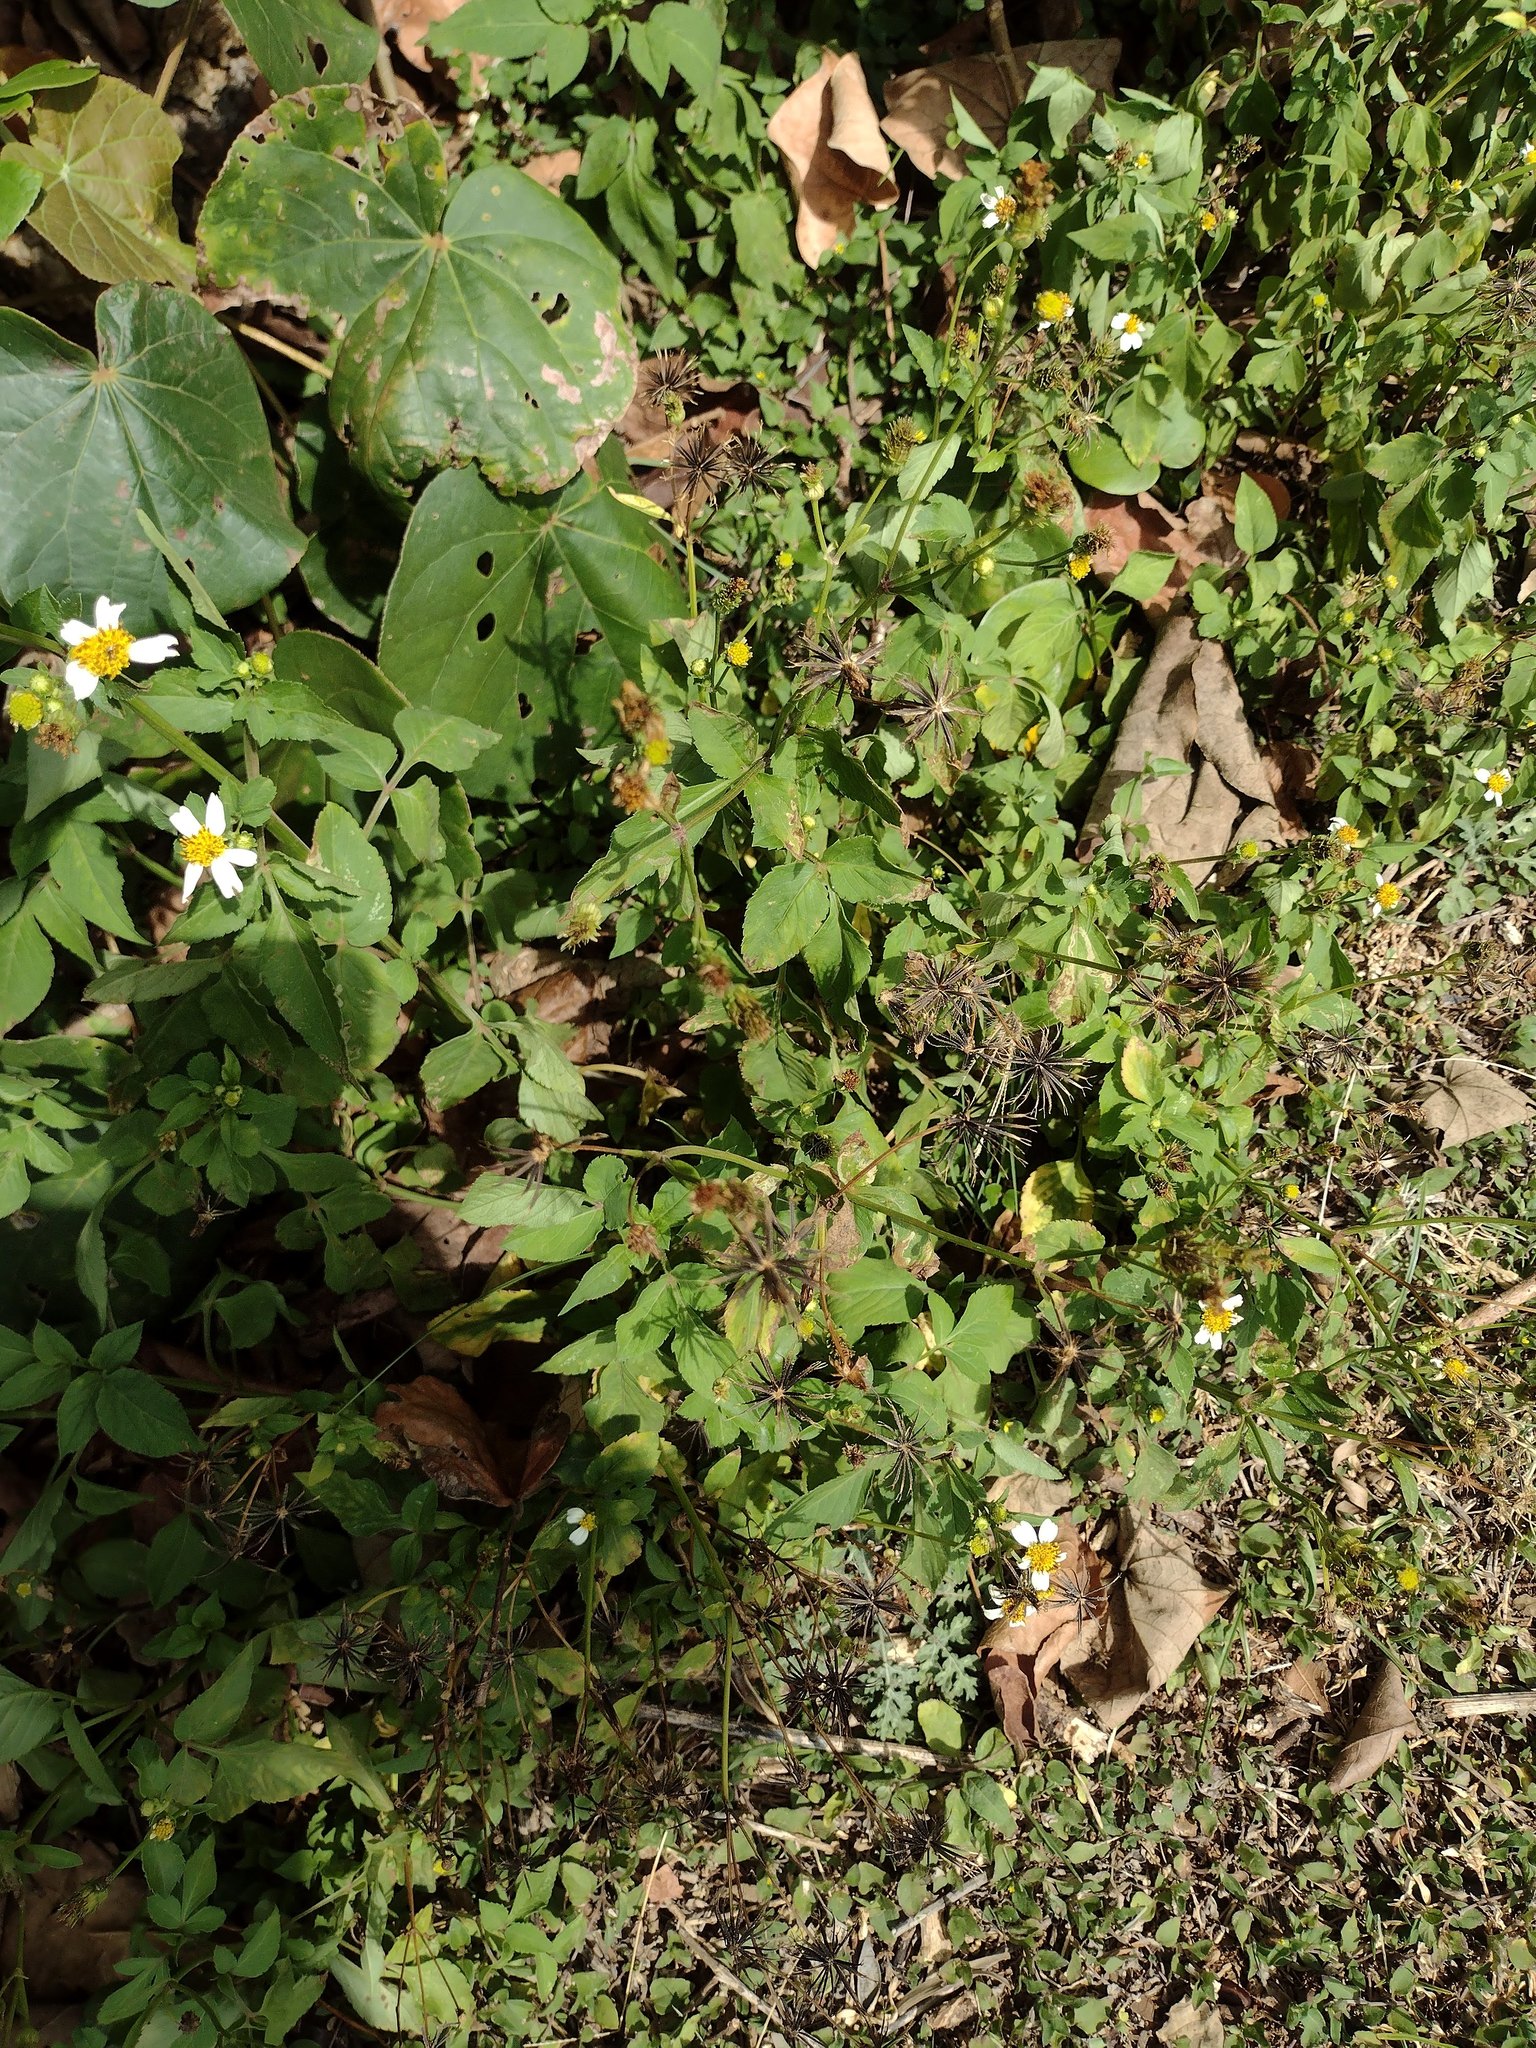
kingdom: Plantae
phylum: Tracheophyta
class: Magnoliopsida
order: Asterales
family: Asteraceae
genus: Bidens
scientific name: Bidens alba
